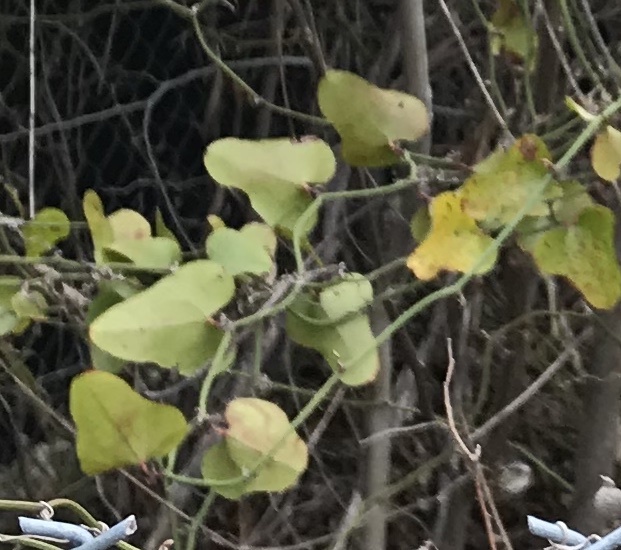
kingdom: Plantae
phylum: Tracheophyta
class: Liliopsida
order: Liliales
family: Smilacaceae
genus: Smilax
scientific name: Smilax bona-nox
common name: Catbrier
